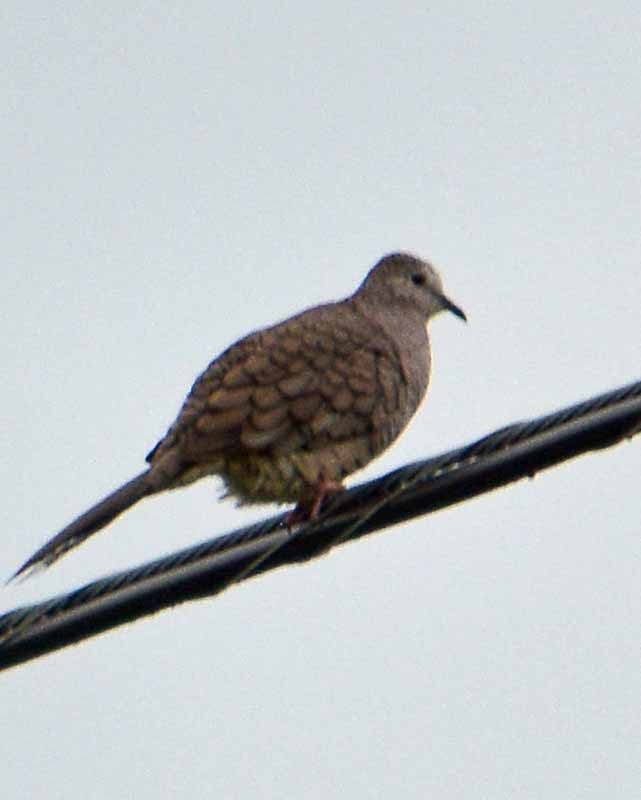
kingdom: Animalia
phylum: Chordata
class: Aves
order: Columbiformes
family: Columbidae
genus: Columbina
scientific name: Columbina inca
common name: Inca dove
